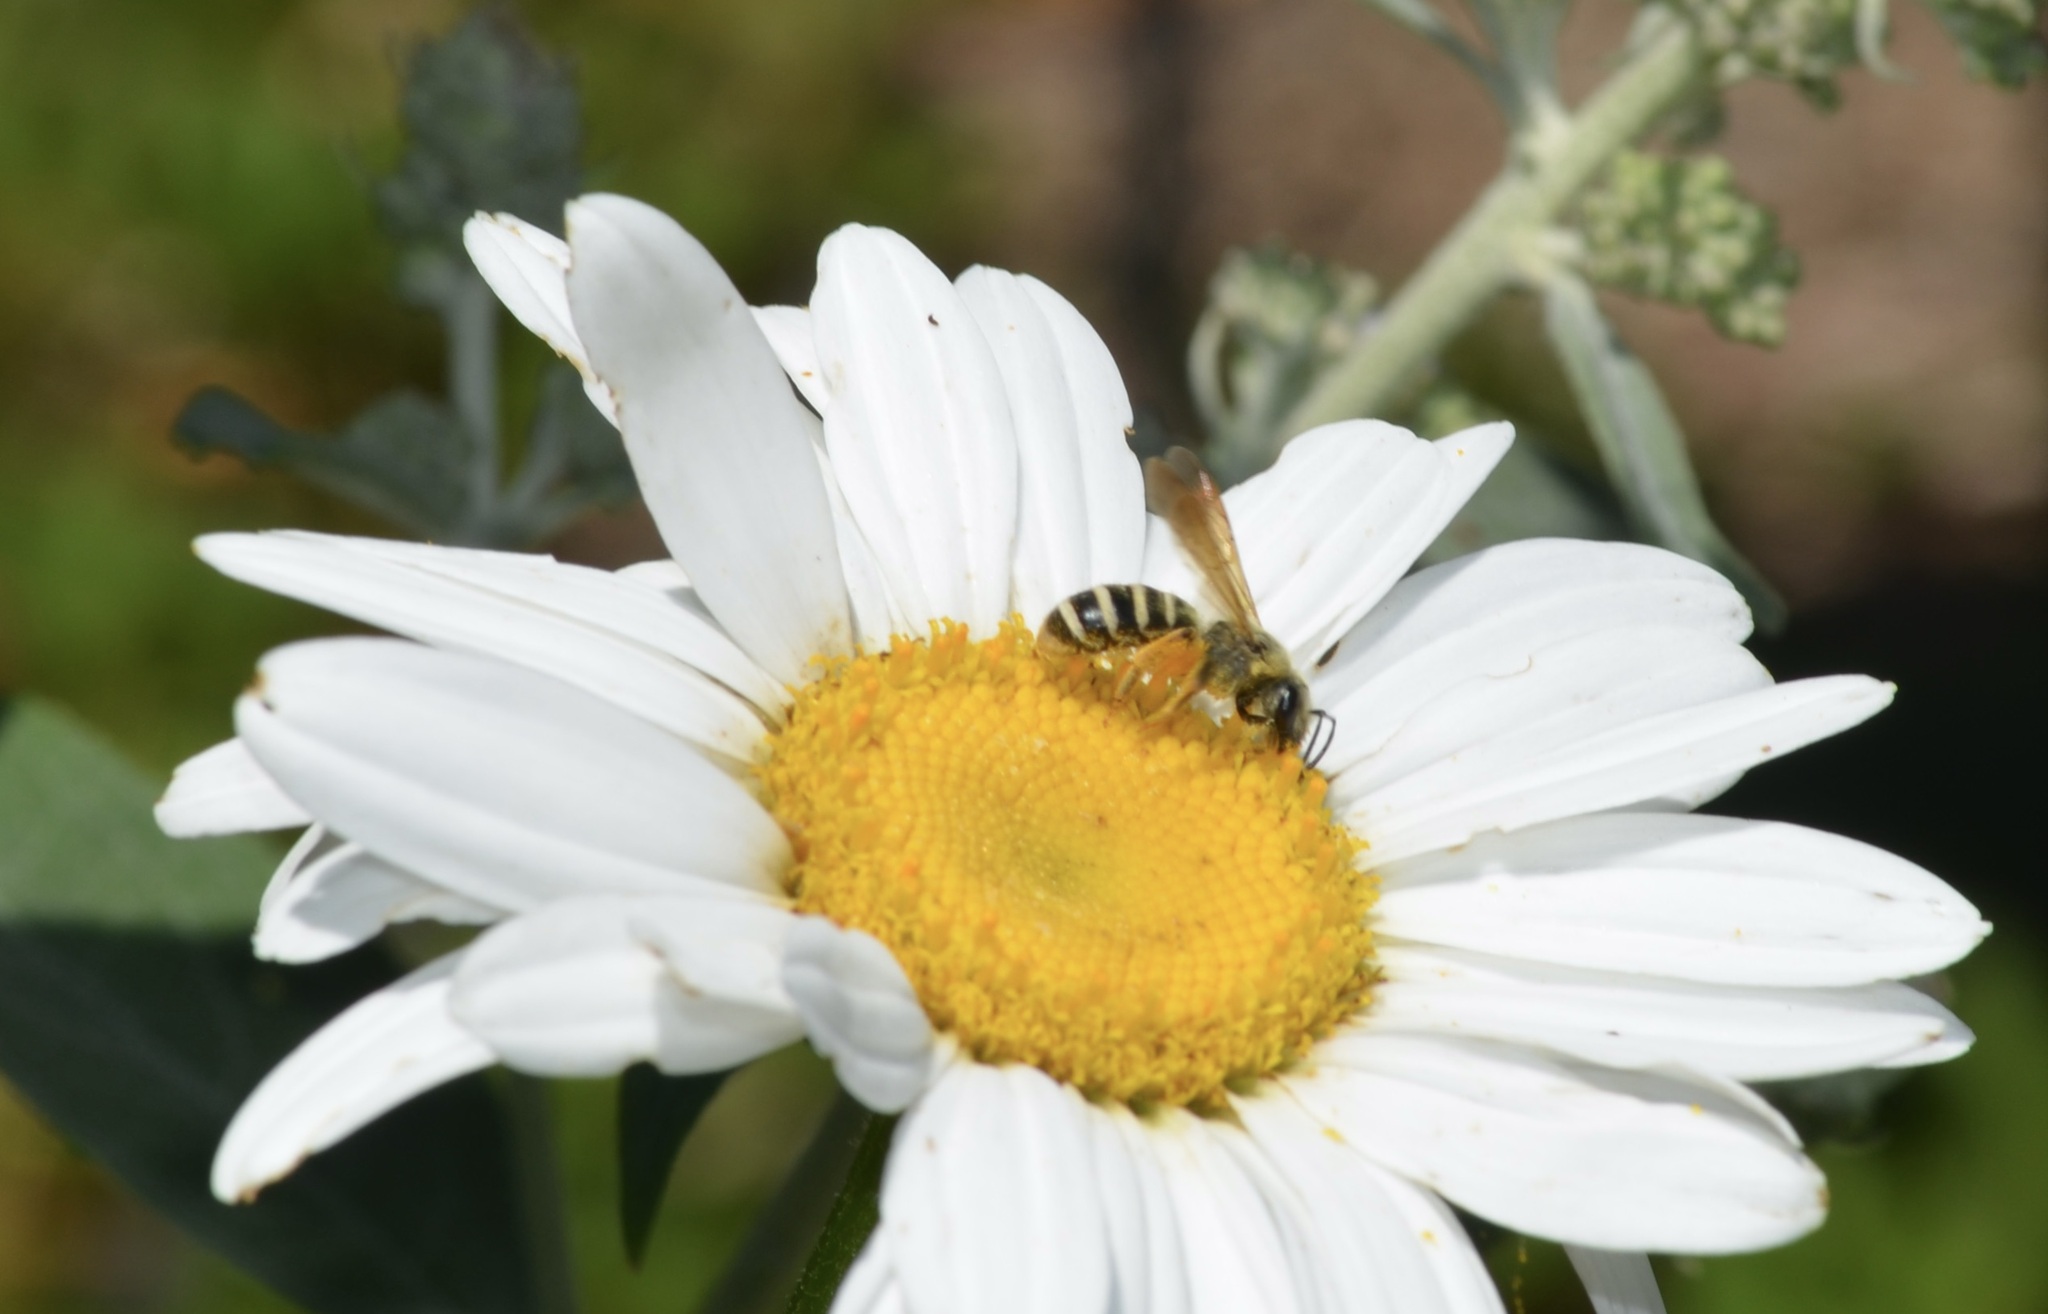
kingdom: Animalia
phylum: Arthropoda
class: Insecta
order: Hymenoptera
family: Halictidae
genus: Halictus
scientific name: Halictus farinosus
